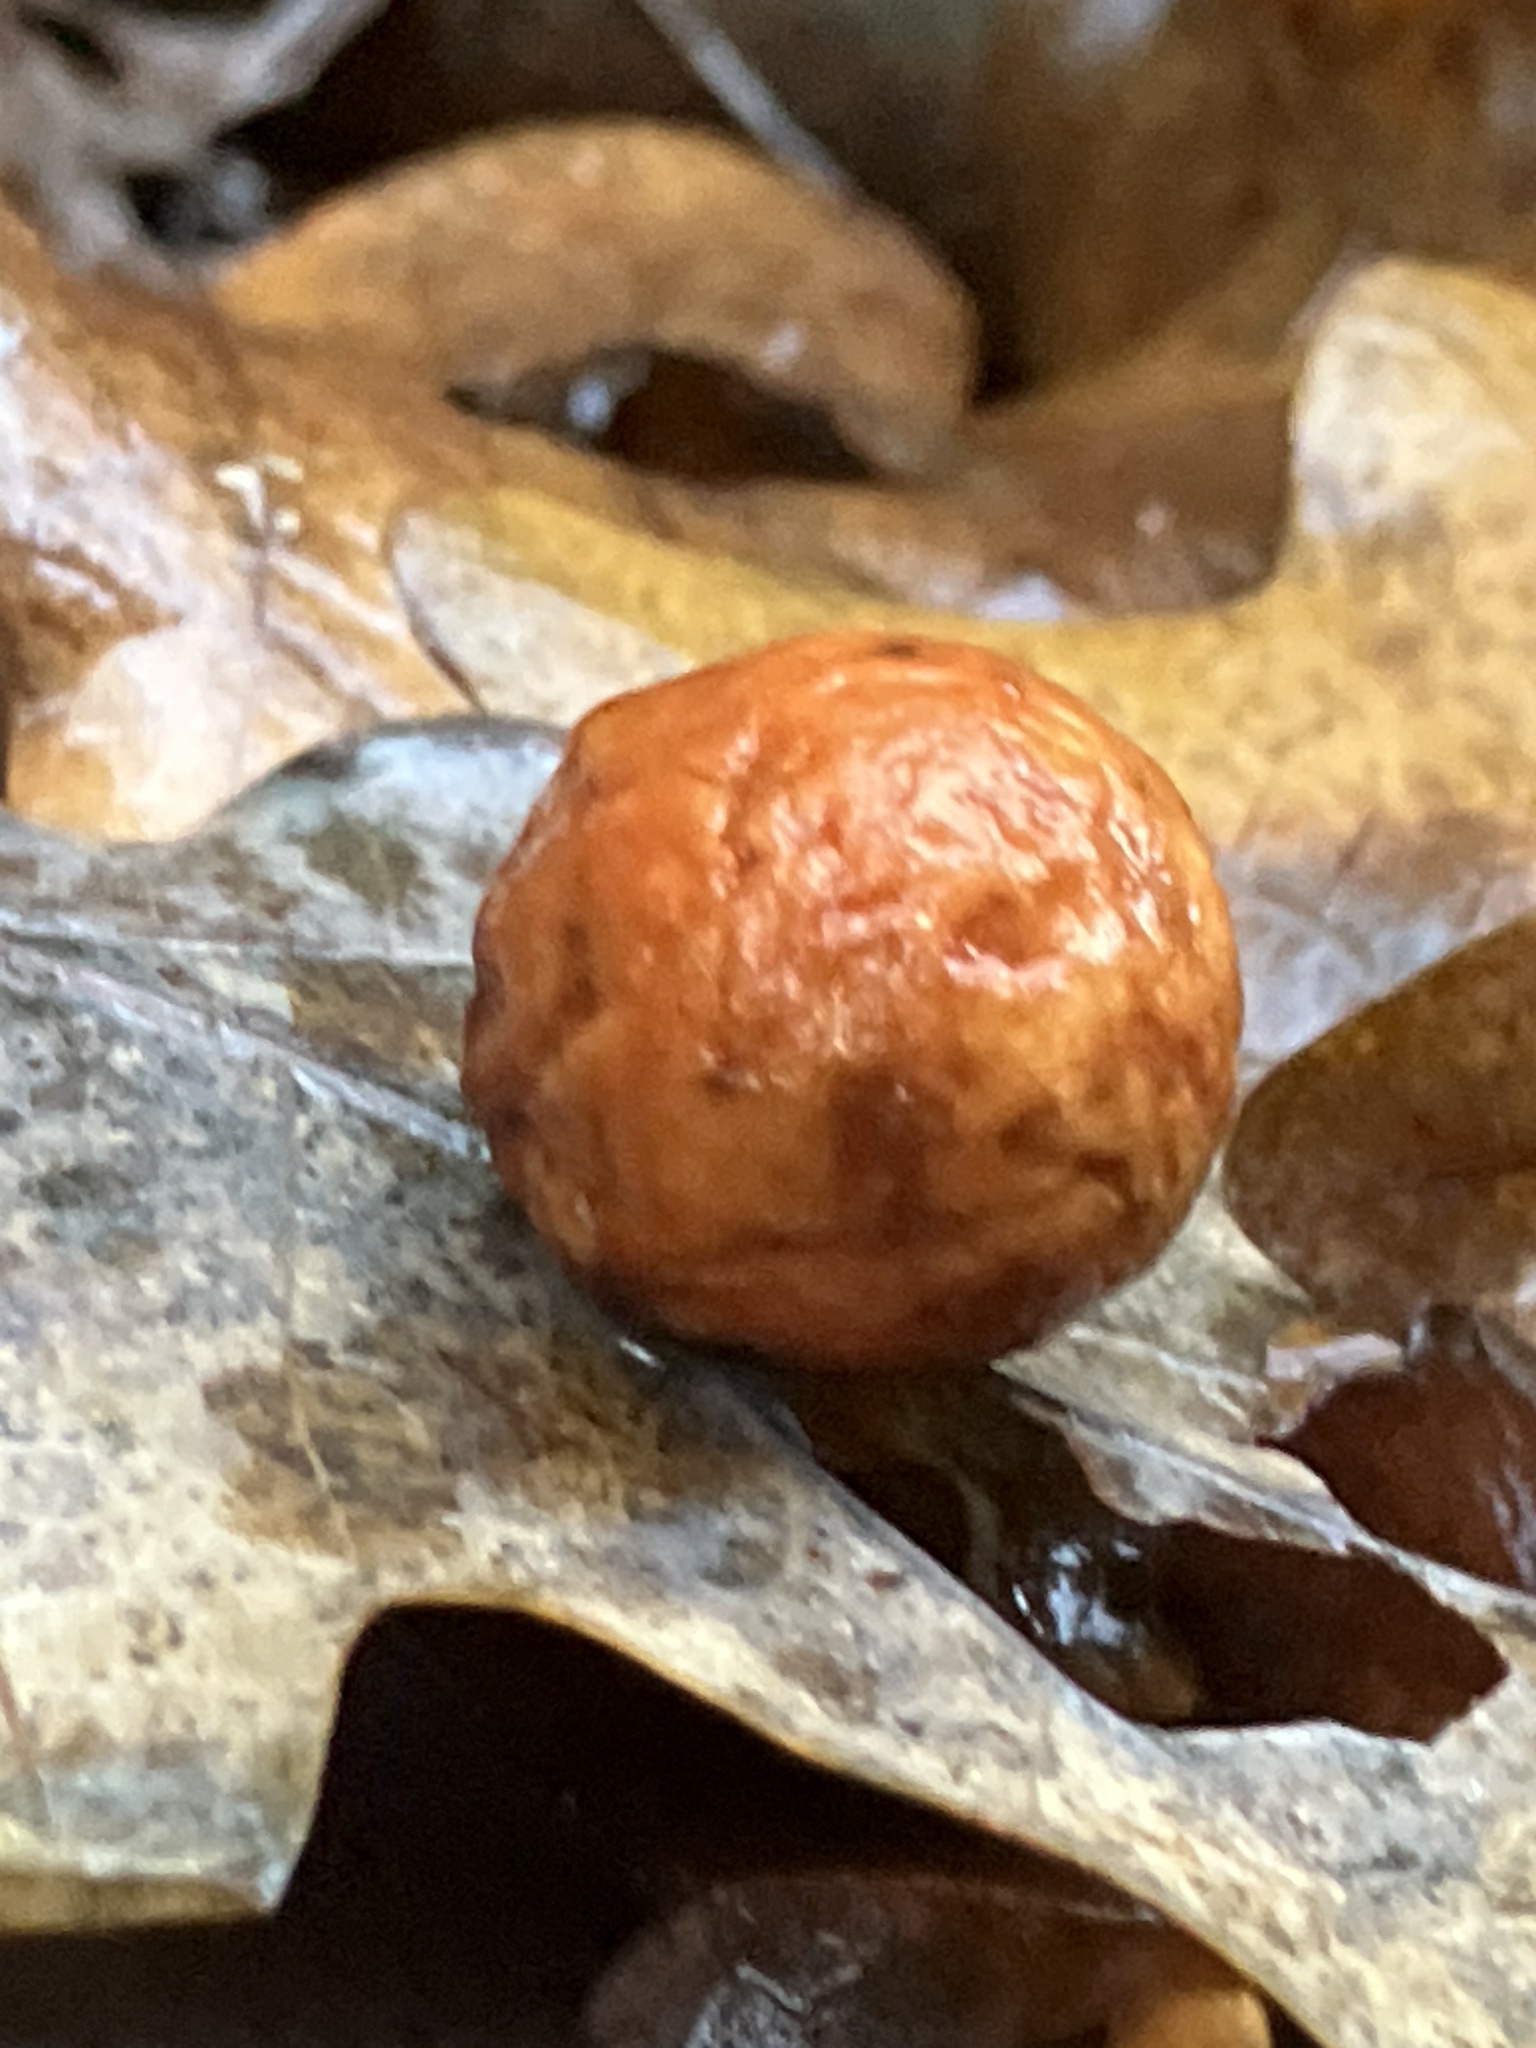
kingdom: Animalia
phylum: Arthropoda
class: Insecta
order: Hymenoptera
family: Cynipidae
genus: Cynips
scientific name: Cynips quercusfolii
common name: Cherry gall
